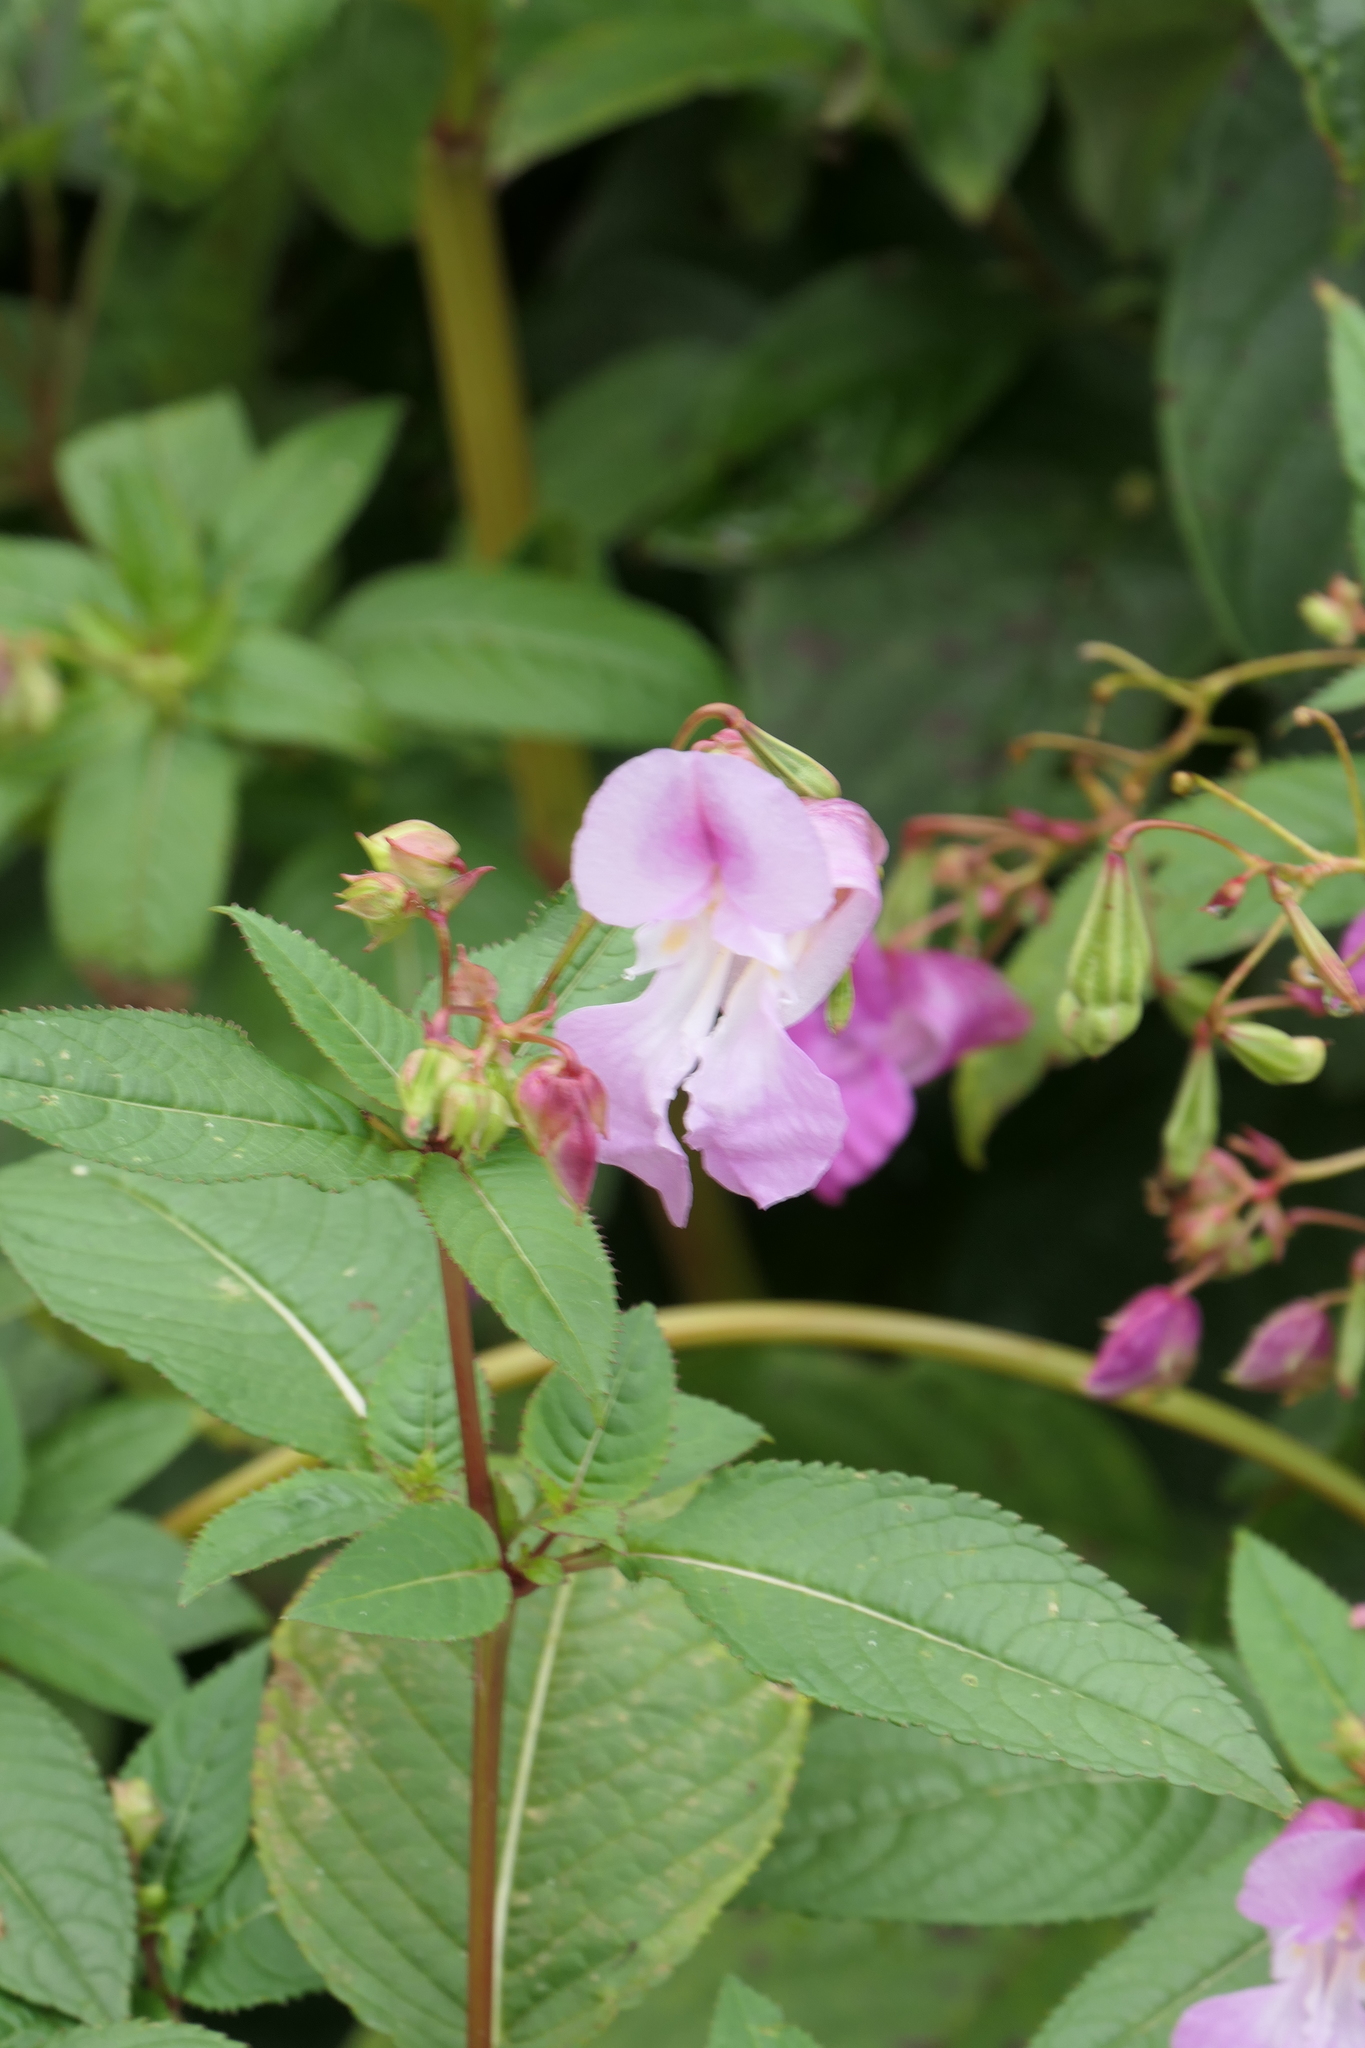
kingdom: Plantae
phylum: Tracheophyta
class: Magnoliopsida
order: Ericales
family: Balsaminaceae
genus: Impatiens
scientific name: Impatiens glandulifera
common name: Himalayan balsam
